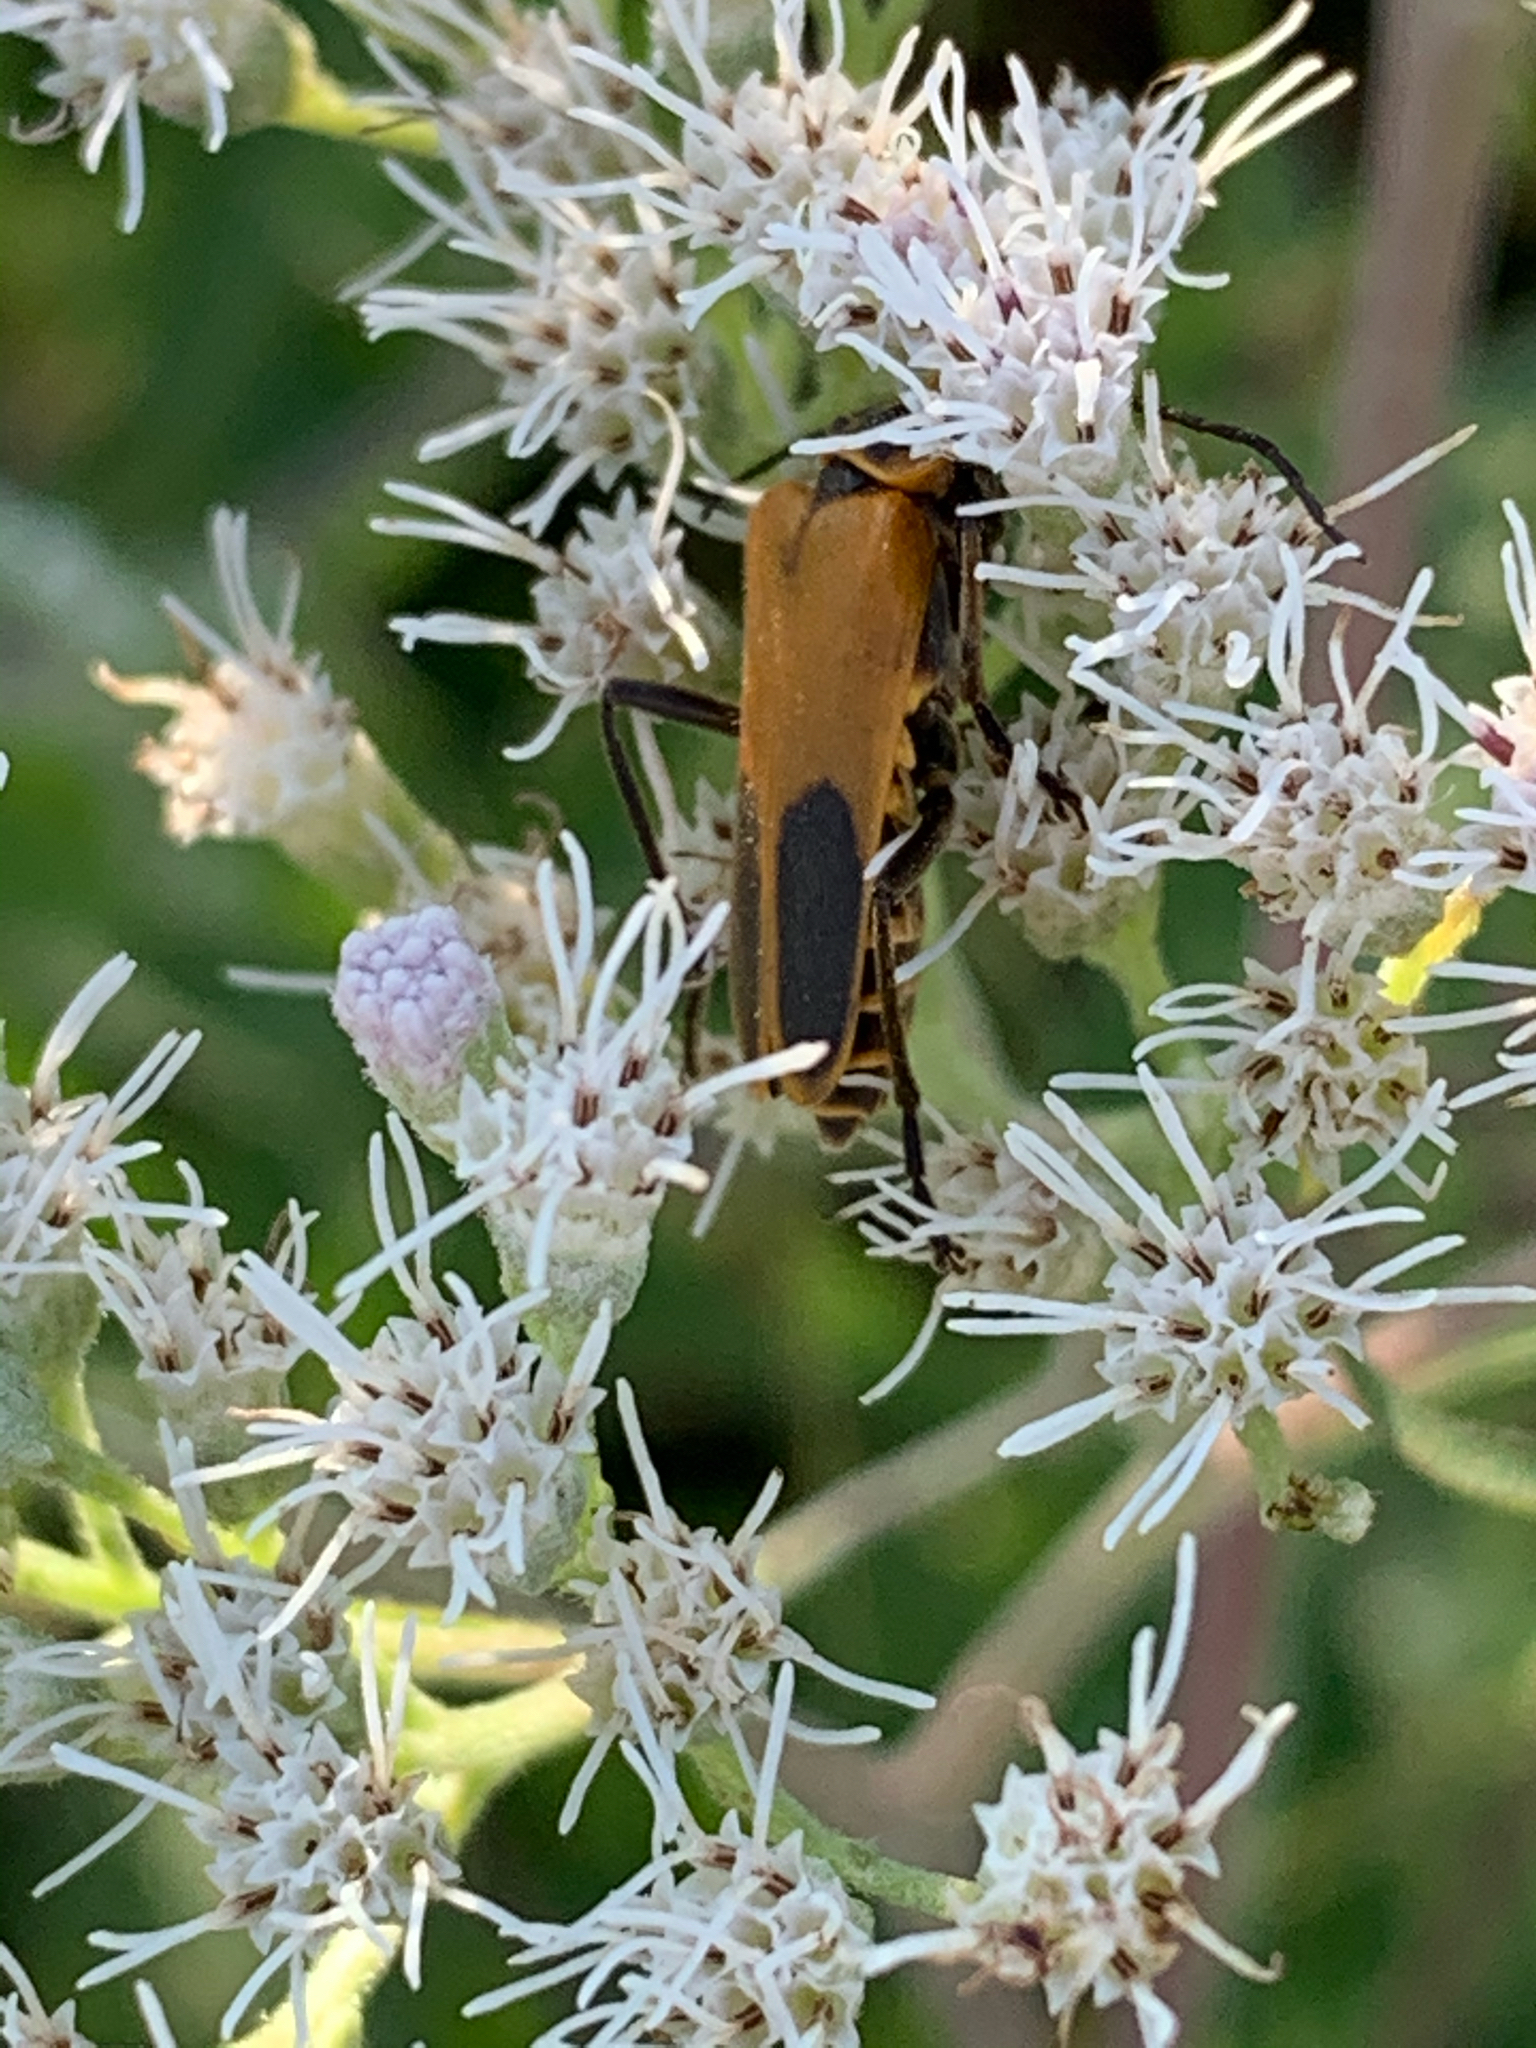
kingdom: Animalia
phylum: Arthropoda
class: Insecta
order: Coleoptera
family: Cantharidae
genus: Chauliognathus
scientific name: Chauliognathus pensylvanicus
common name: Goldenrod soldier beetle
